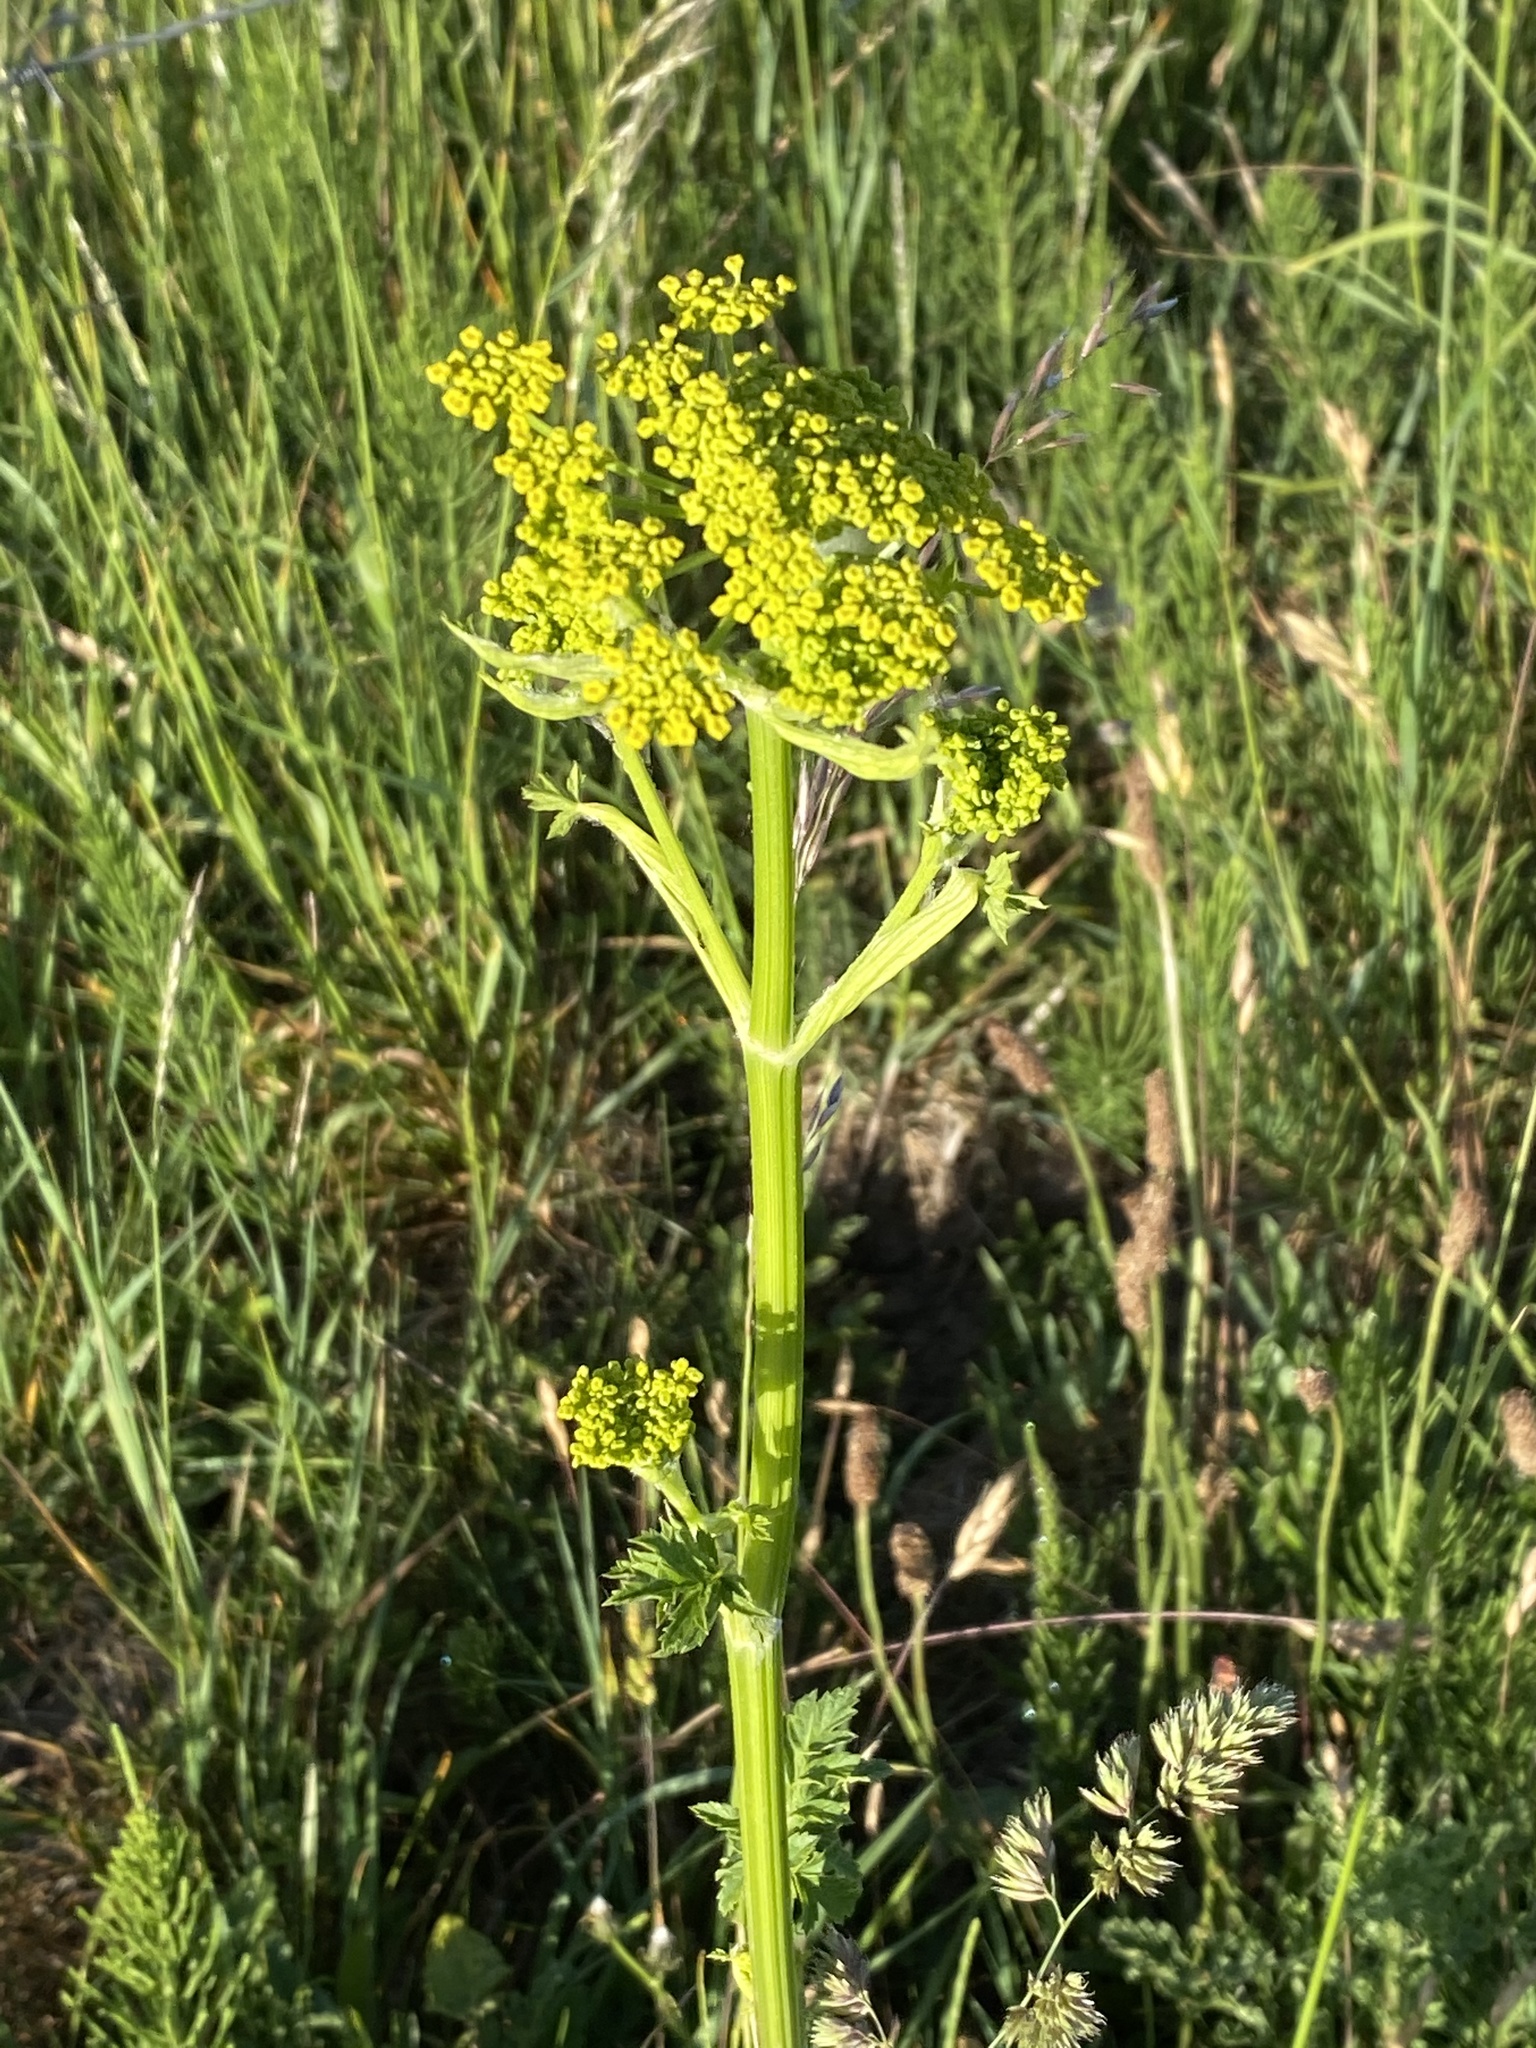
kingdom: Plantae
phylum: Tracheophyta
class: Magnoliopsida
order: Apiales
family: Apiaceae
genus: Pastinaca
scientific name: Pastinaca sativa
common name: Wild parsnip
